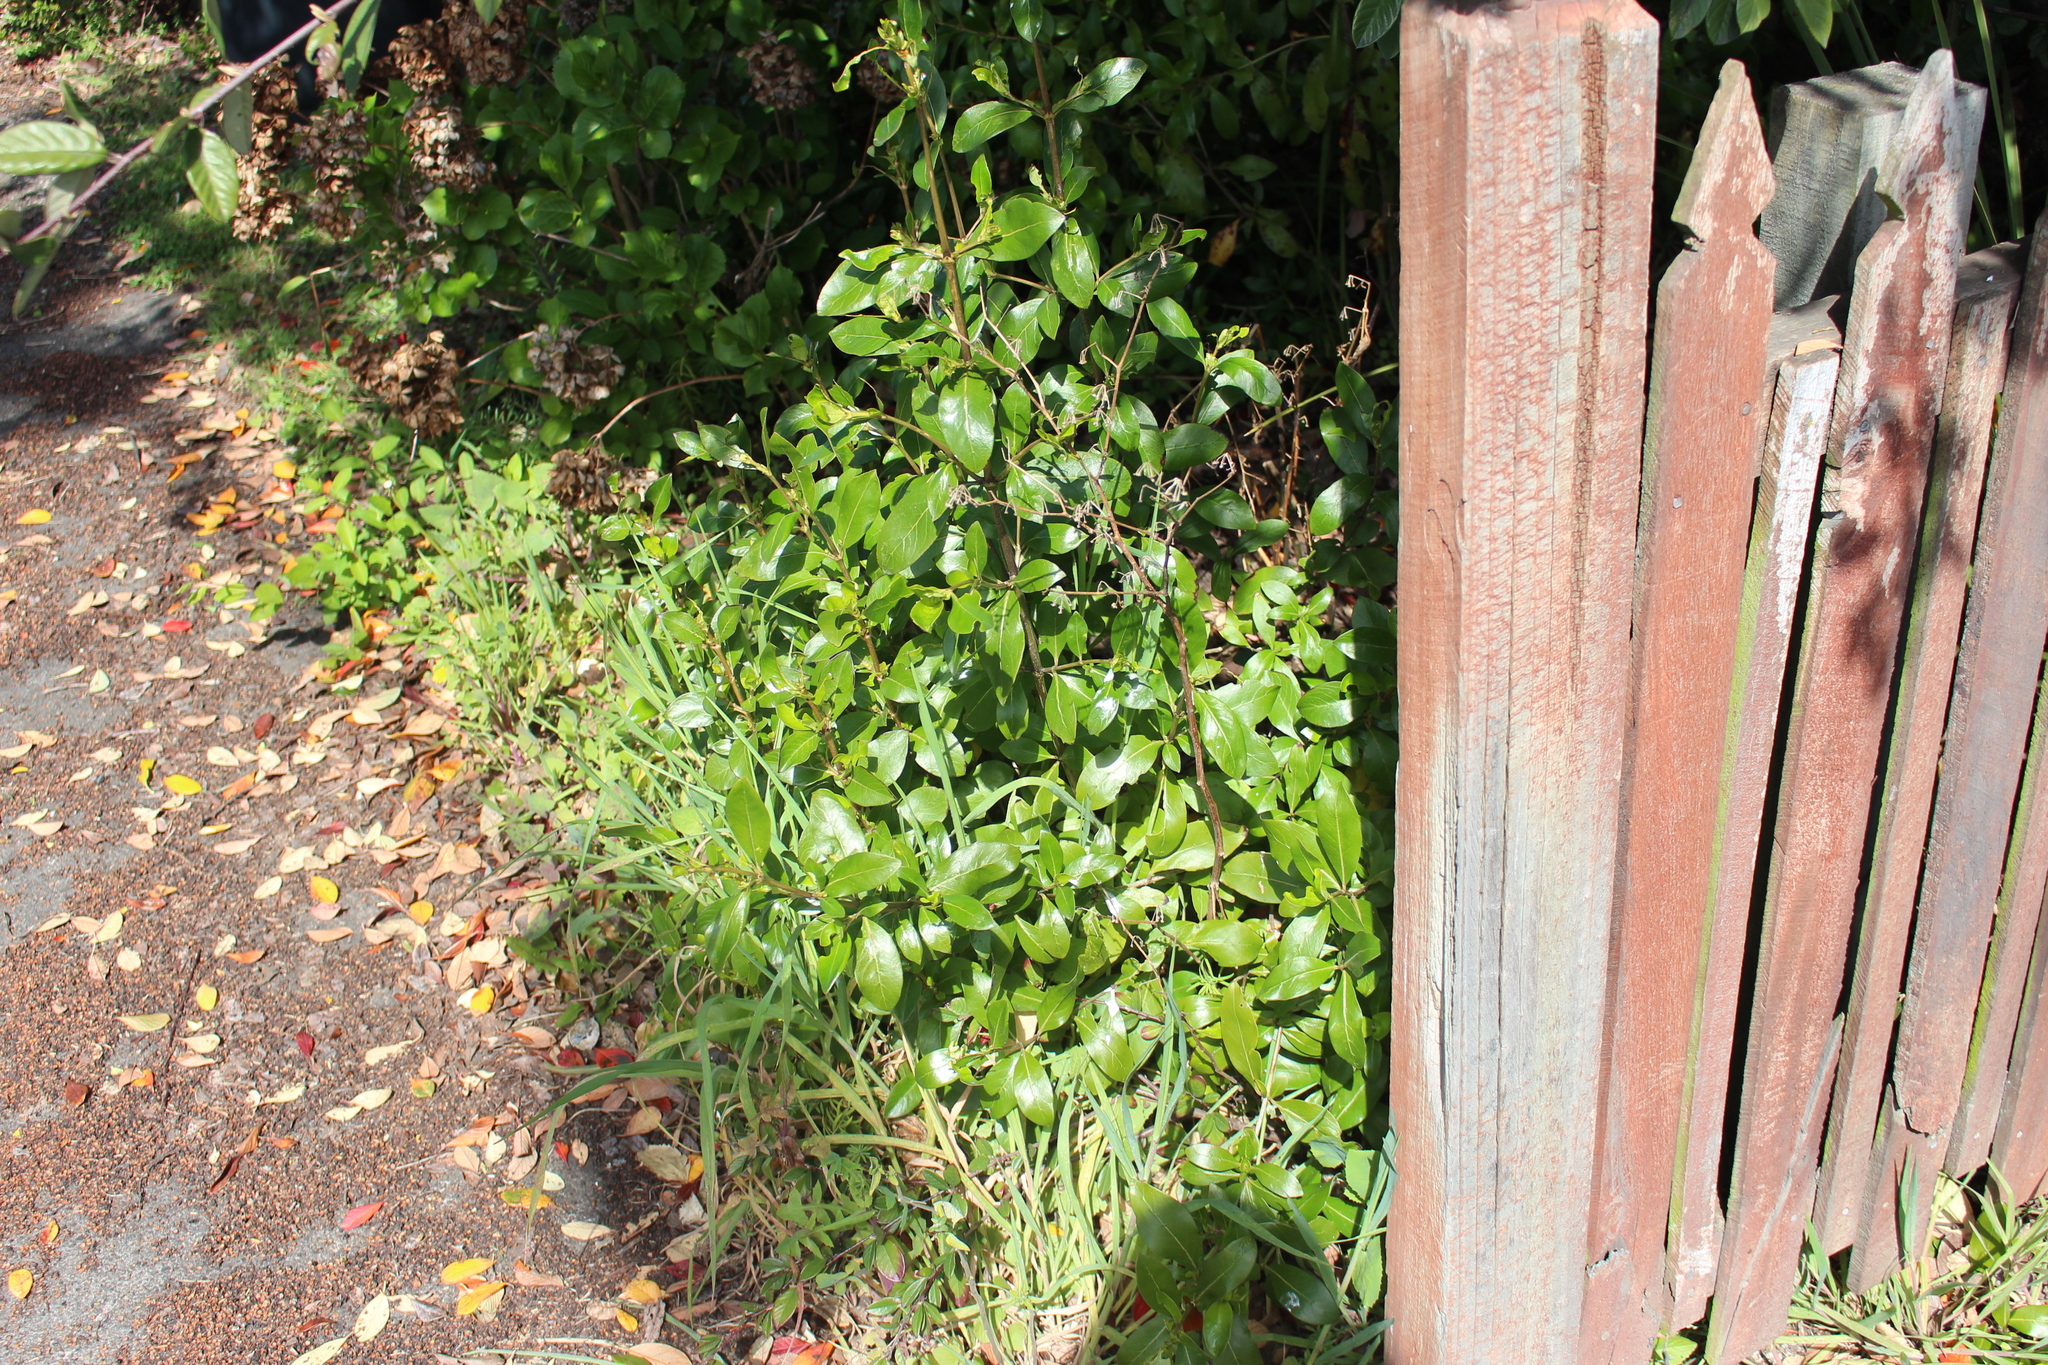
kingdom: Plantae
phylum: Tracheophyta
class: Magnoliopsida
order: Gentianales
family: Rubiaceae
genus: Coprosma
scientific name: Coprosma robusta
